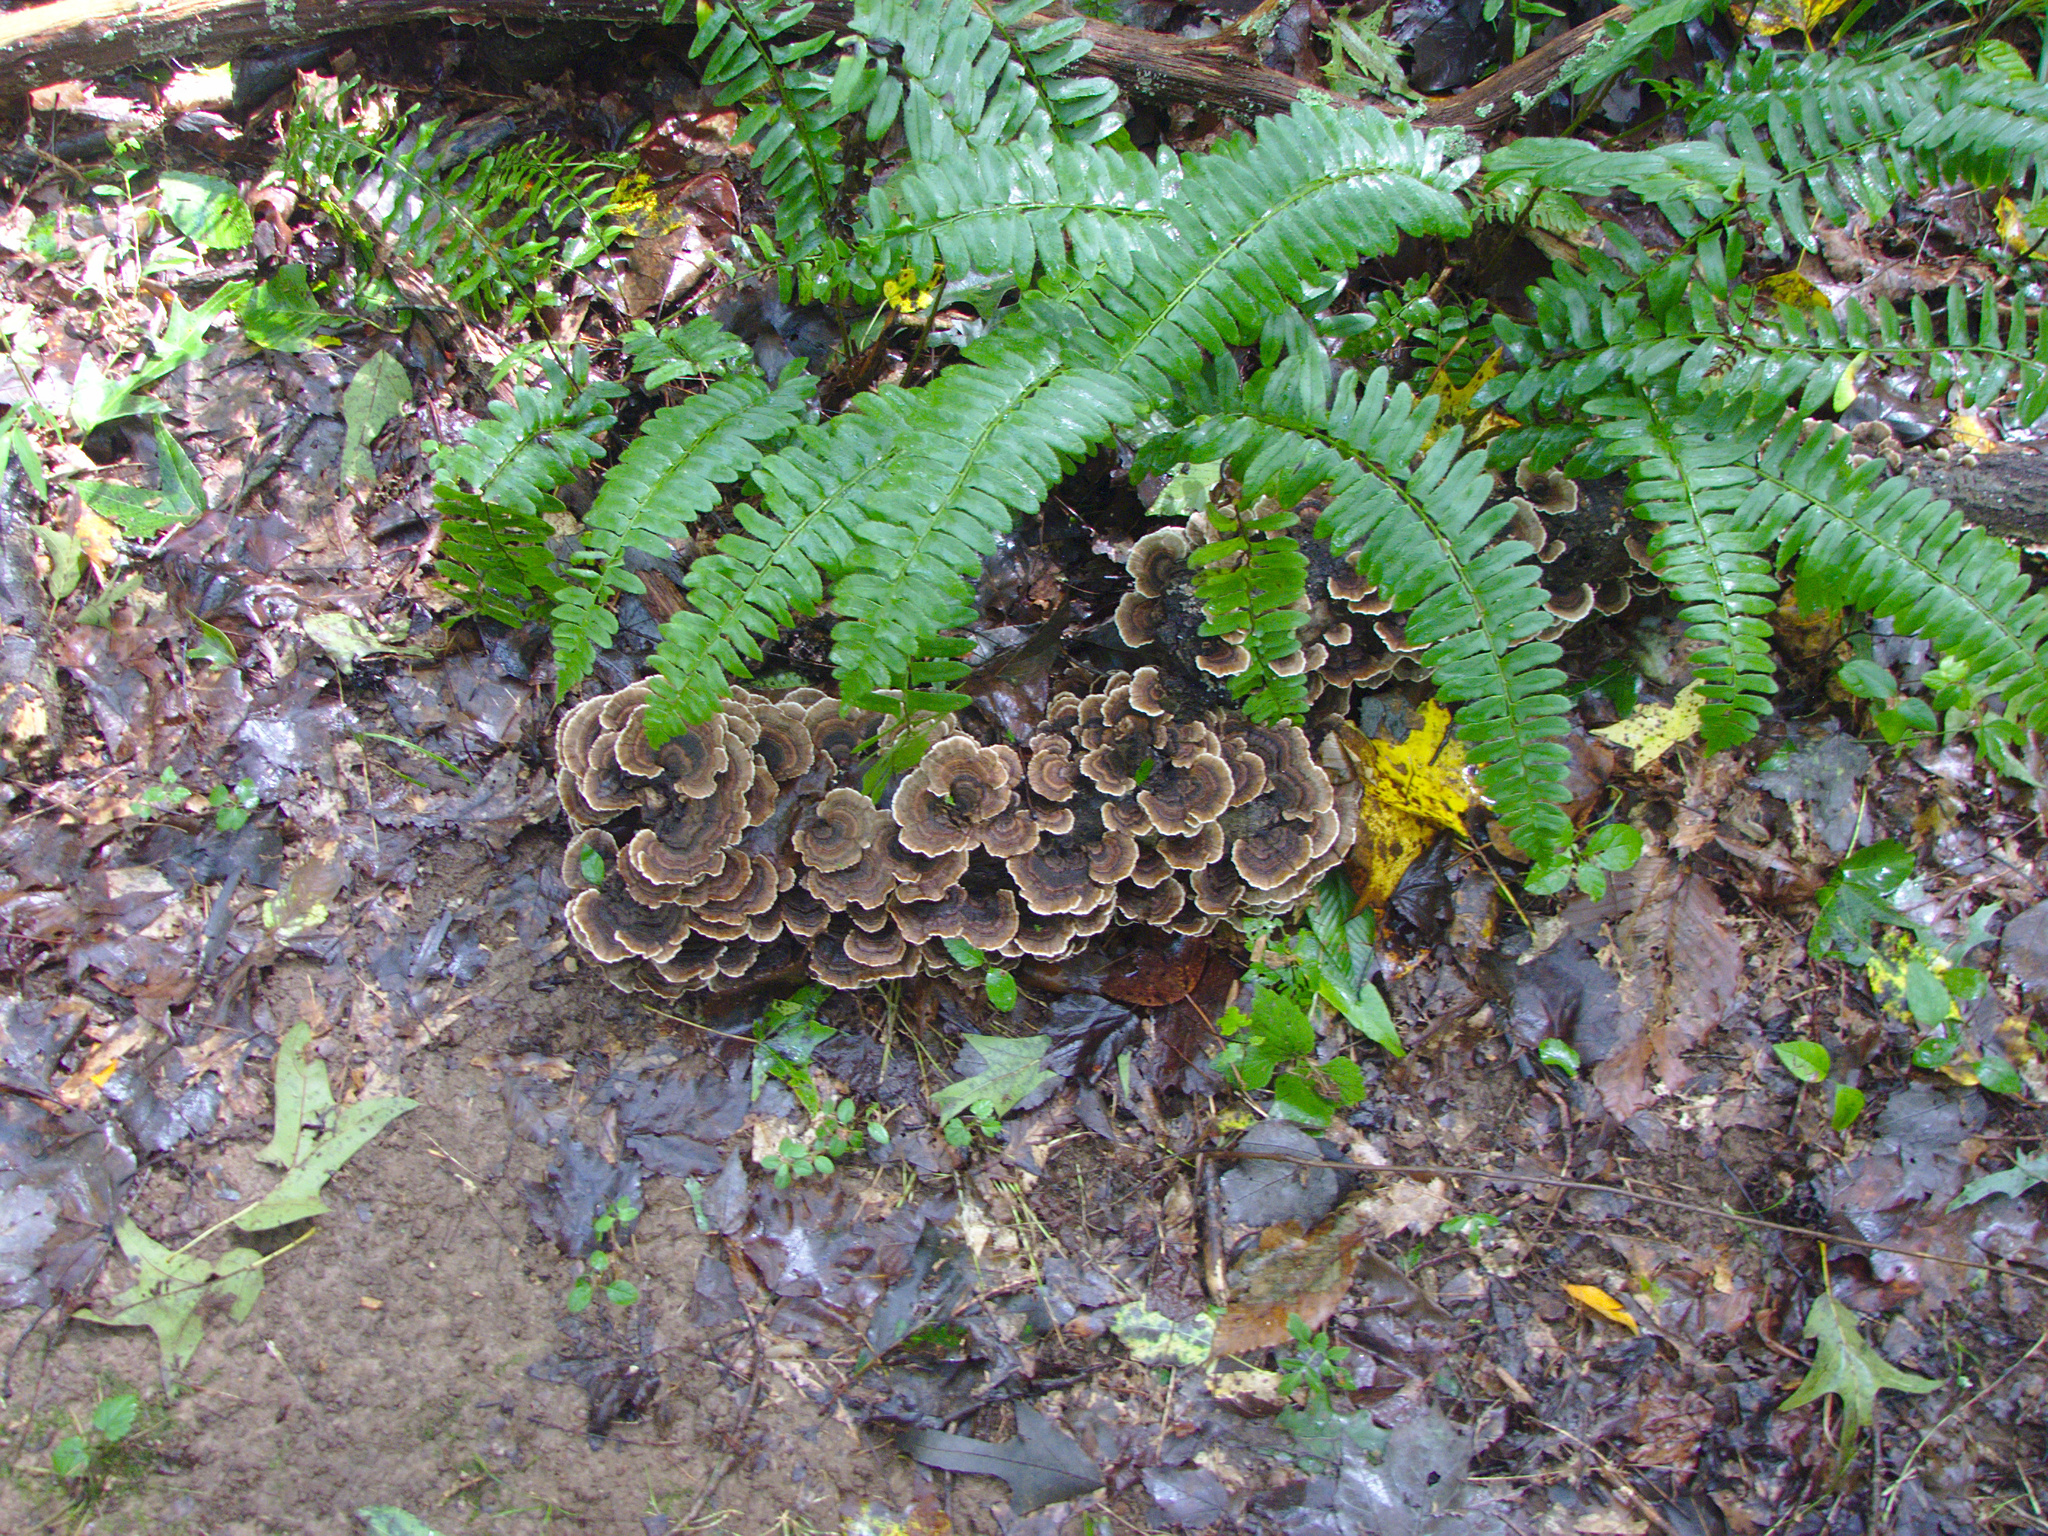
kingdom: Plantae
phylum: Tracheophyta
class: Polypodiopsida
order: Polypodiales
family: Dryopteridaceae
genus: Polystichum
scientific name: Polystichum acrostichoides
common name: Christmas fern
